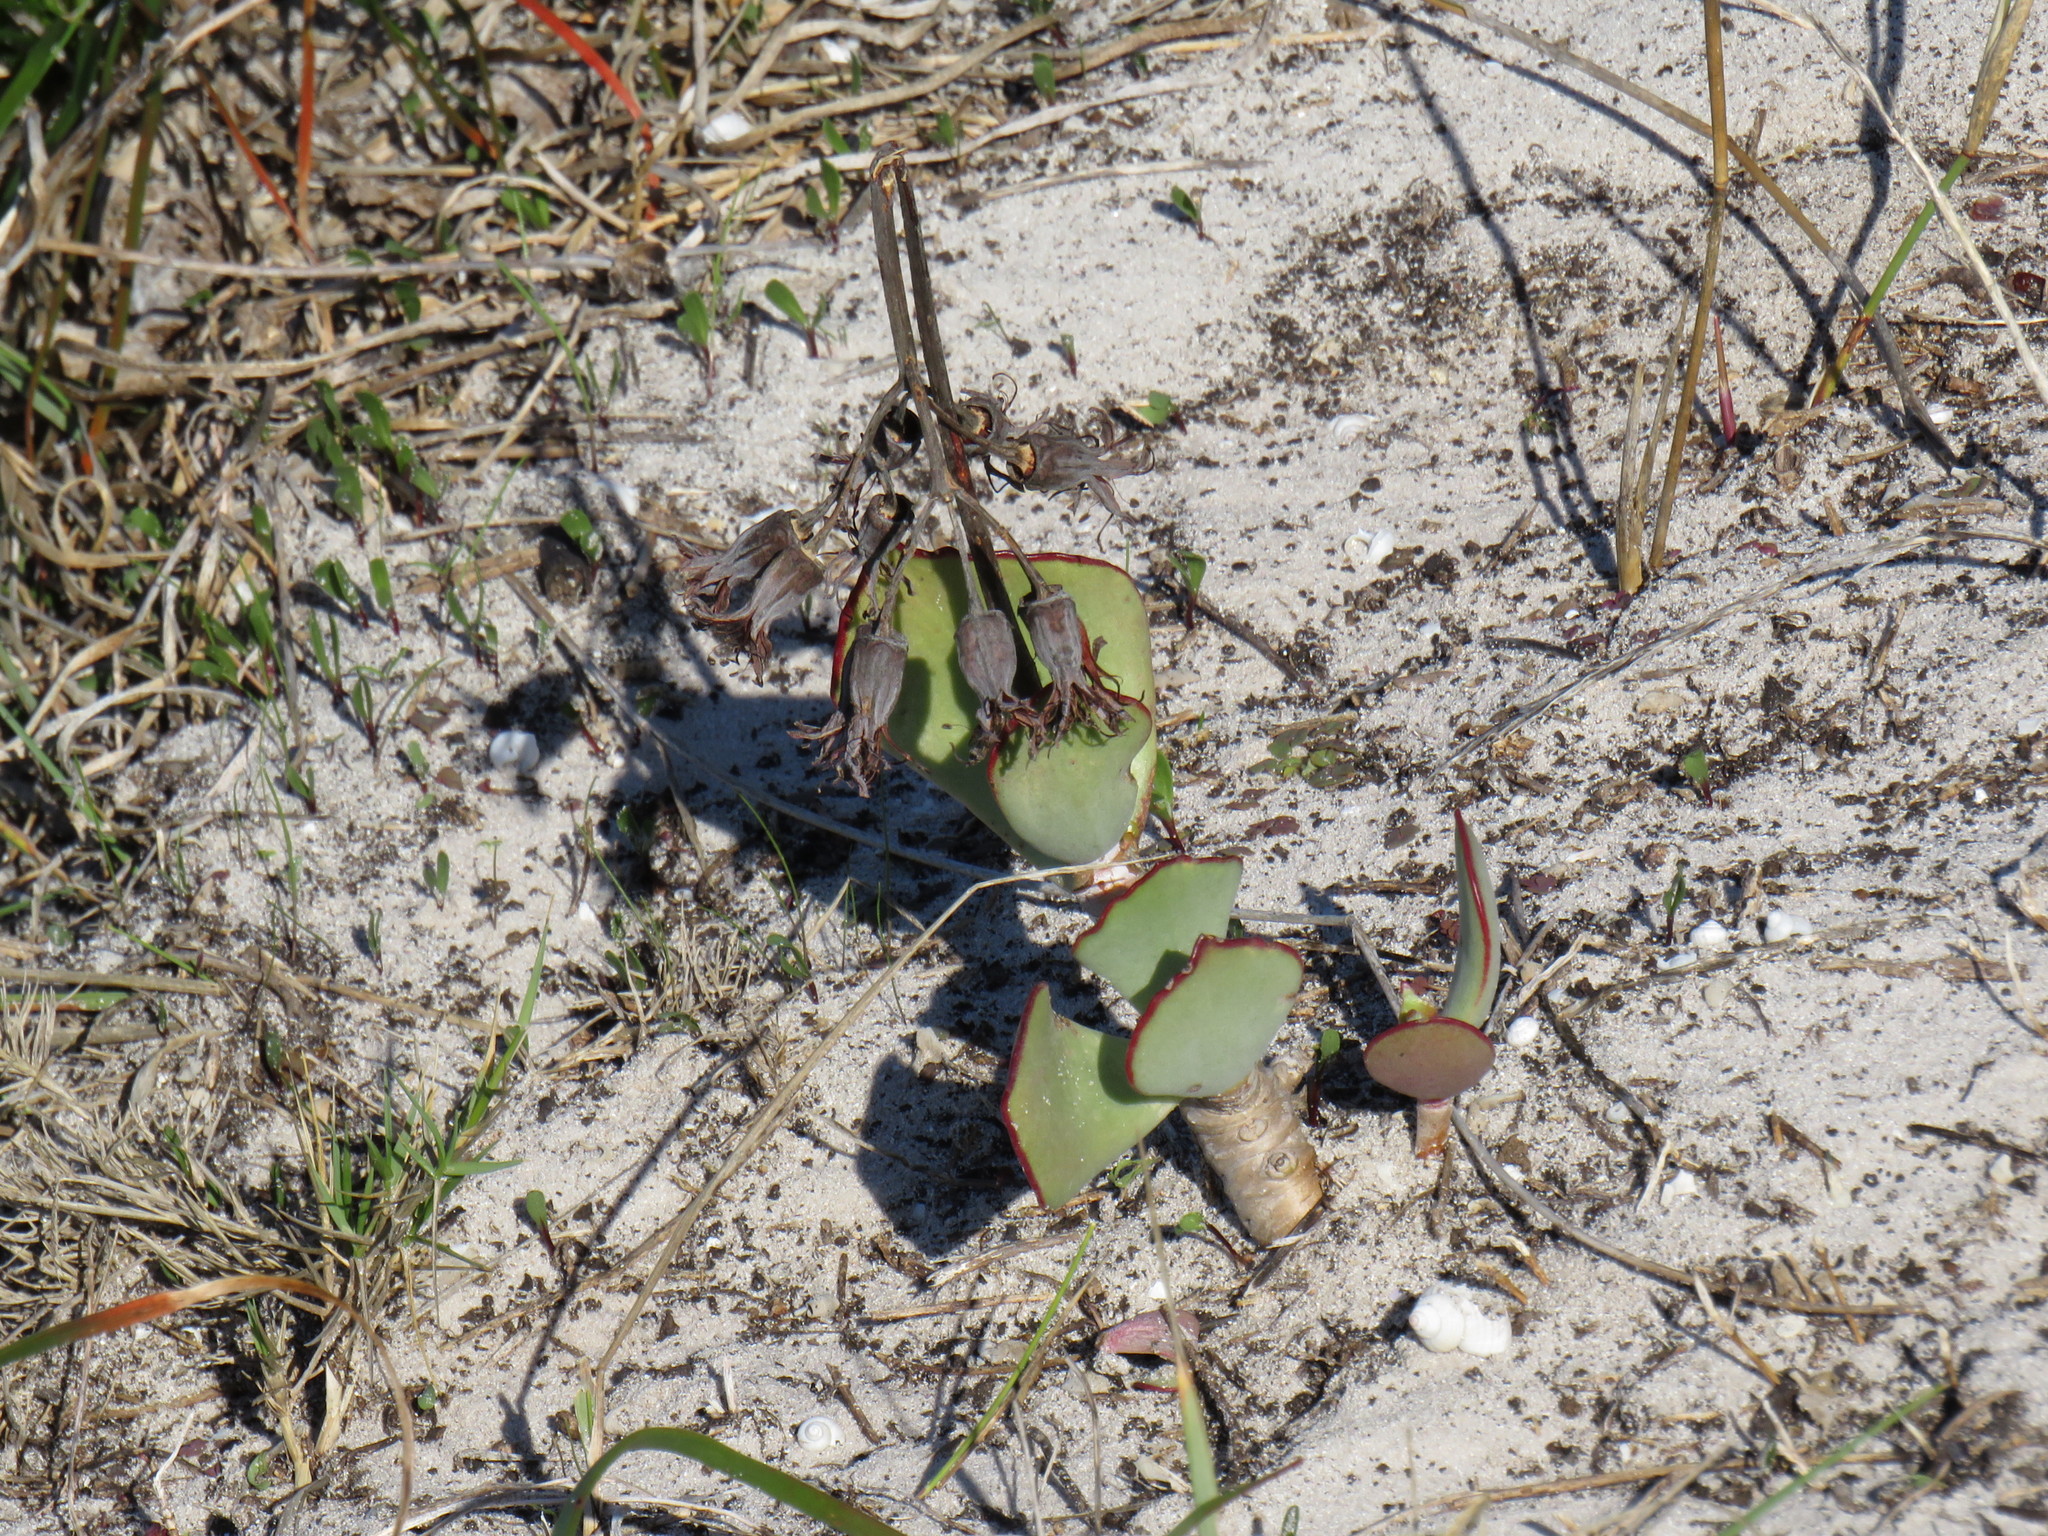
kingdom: Plantae
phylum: Tracheophyta
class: Magnoliopsida
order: Saxifragales
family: Crassulaceae
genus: Cotyledon
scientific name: Cotyledon orbiculata
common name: Pig's ear
